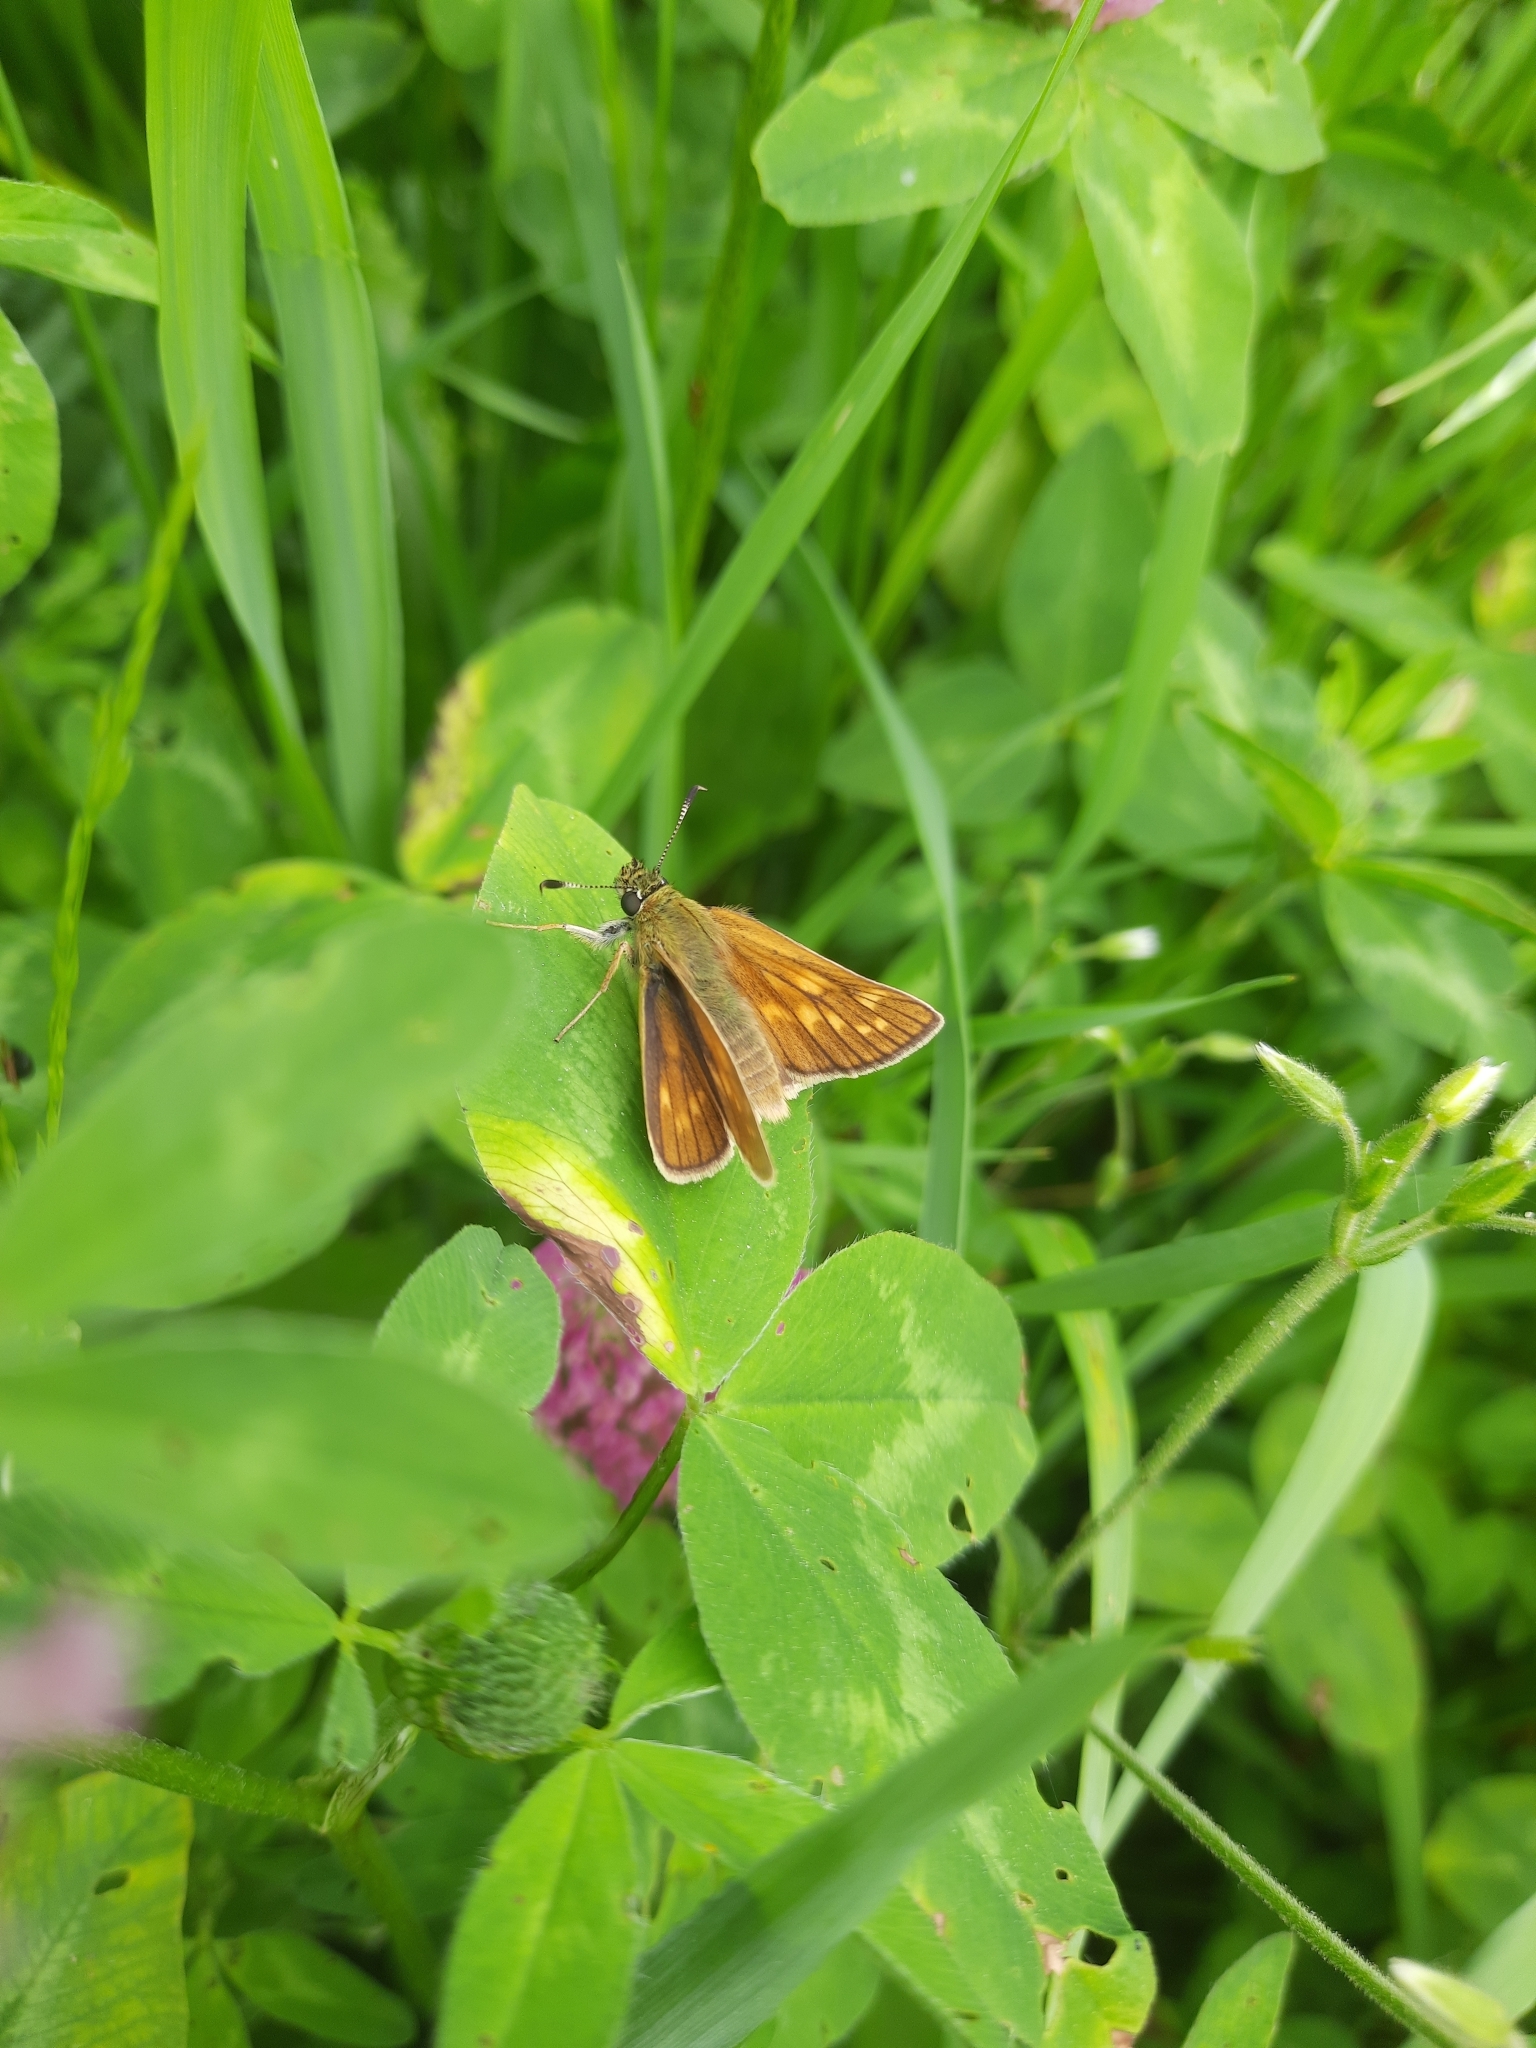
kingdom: Animalia
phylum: Arthropoda
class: Insecta
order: Lepidoptera
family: Hesperiidae
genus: Ochlodes
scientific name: Ochlodes venata
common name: Large skipper
